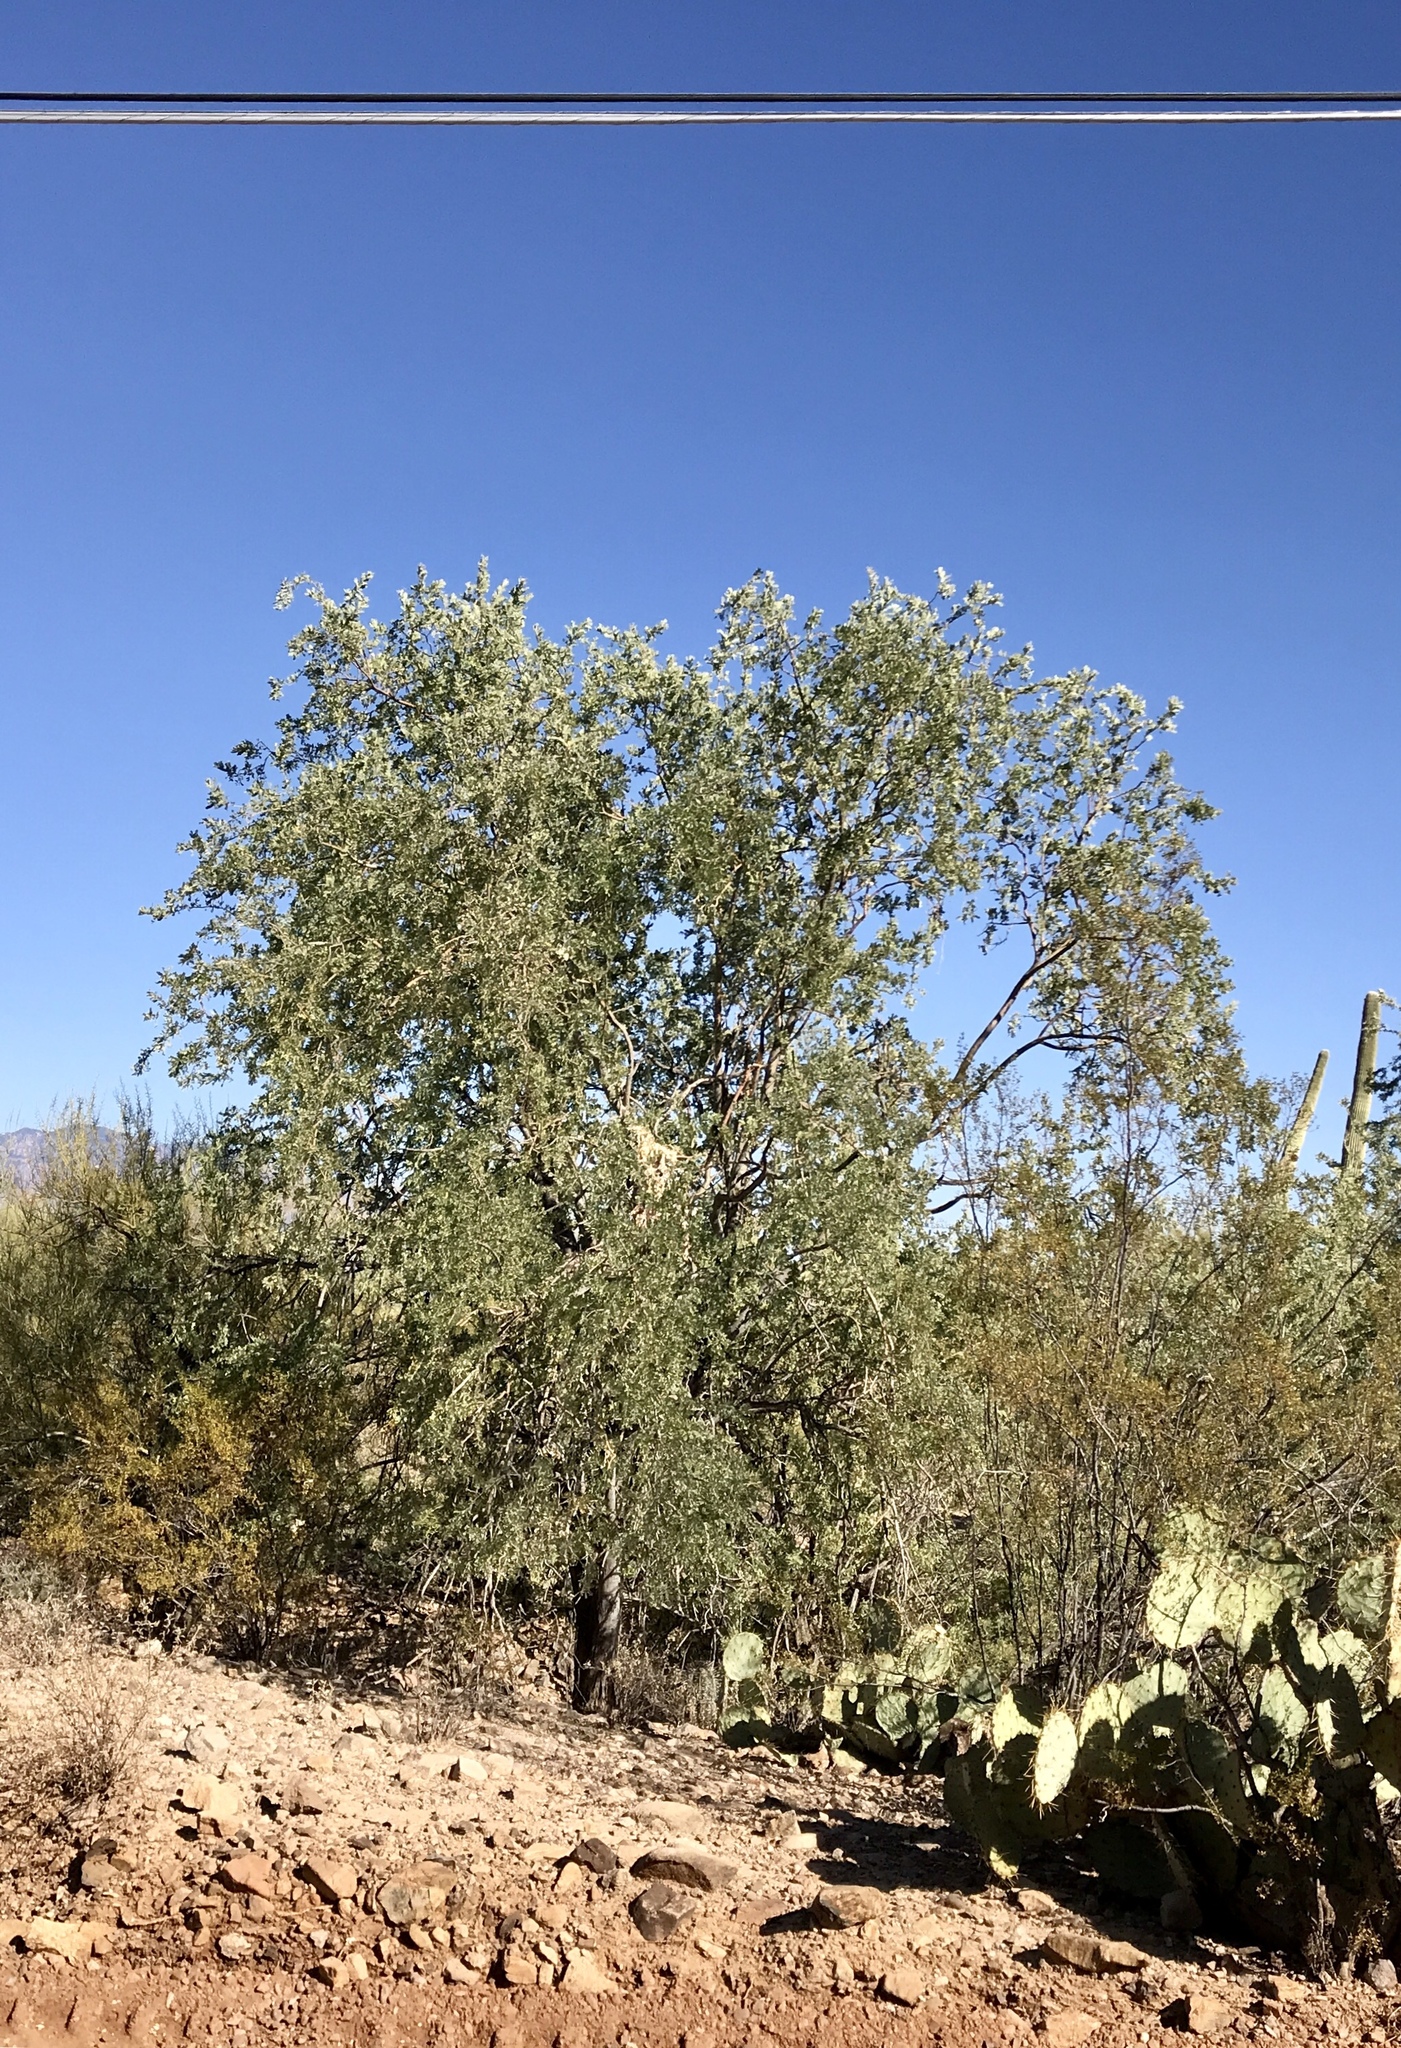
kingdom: Plantae
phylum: Tracheophyta
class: Magnoliopsida
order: Fabales
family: Fabaceae
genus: Olneya
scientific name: Olneya tesota
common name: Desert ironwood
